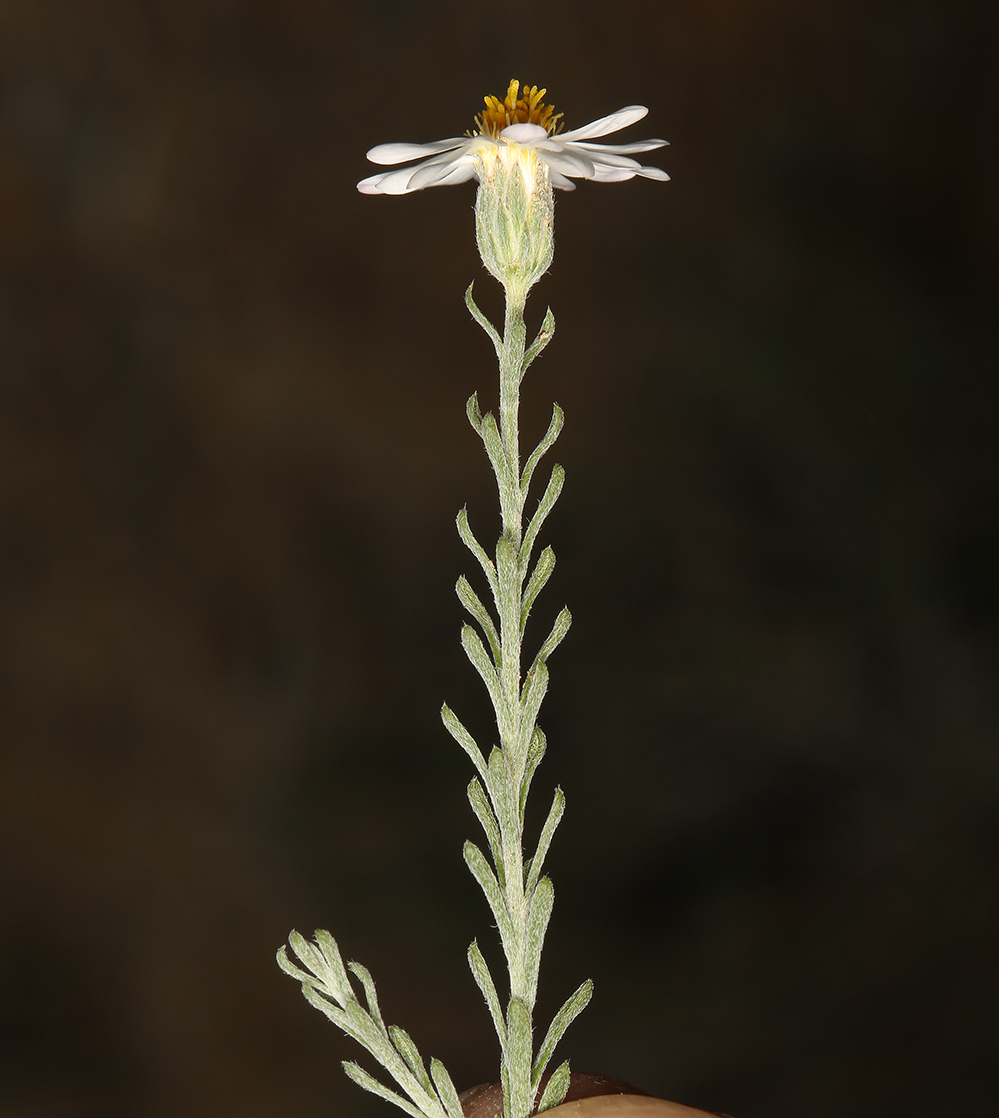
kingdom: Plantae
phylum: Tracheophyta
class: Magnoliopsida
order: Asterales
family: Asteraceae
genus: Chaetopappa
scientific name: Chaetopappa ericoides
